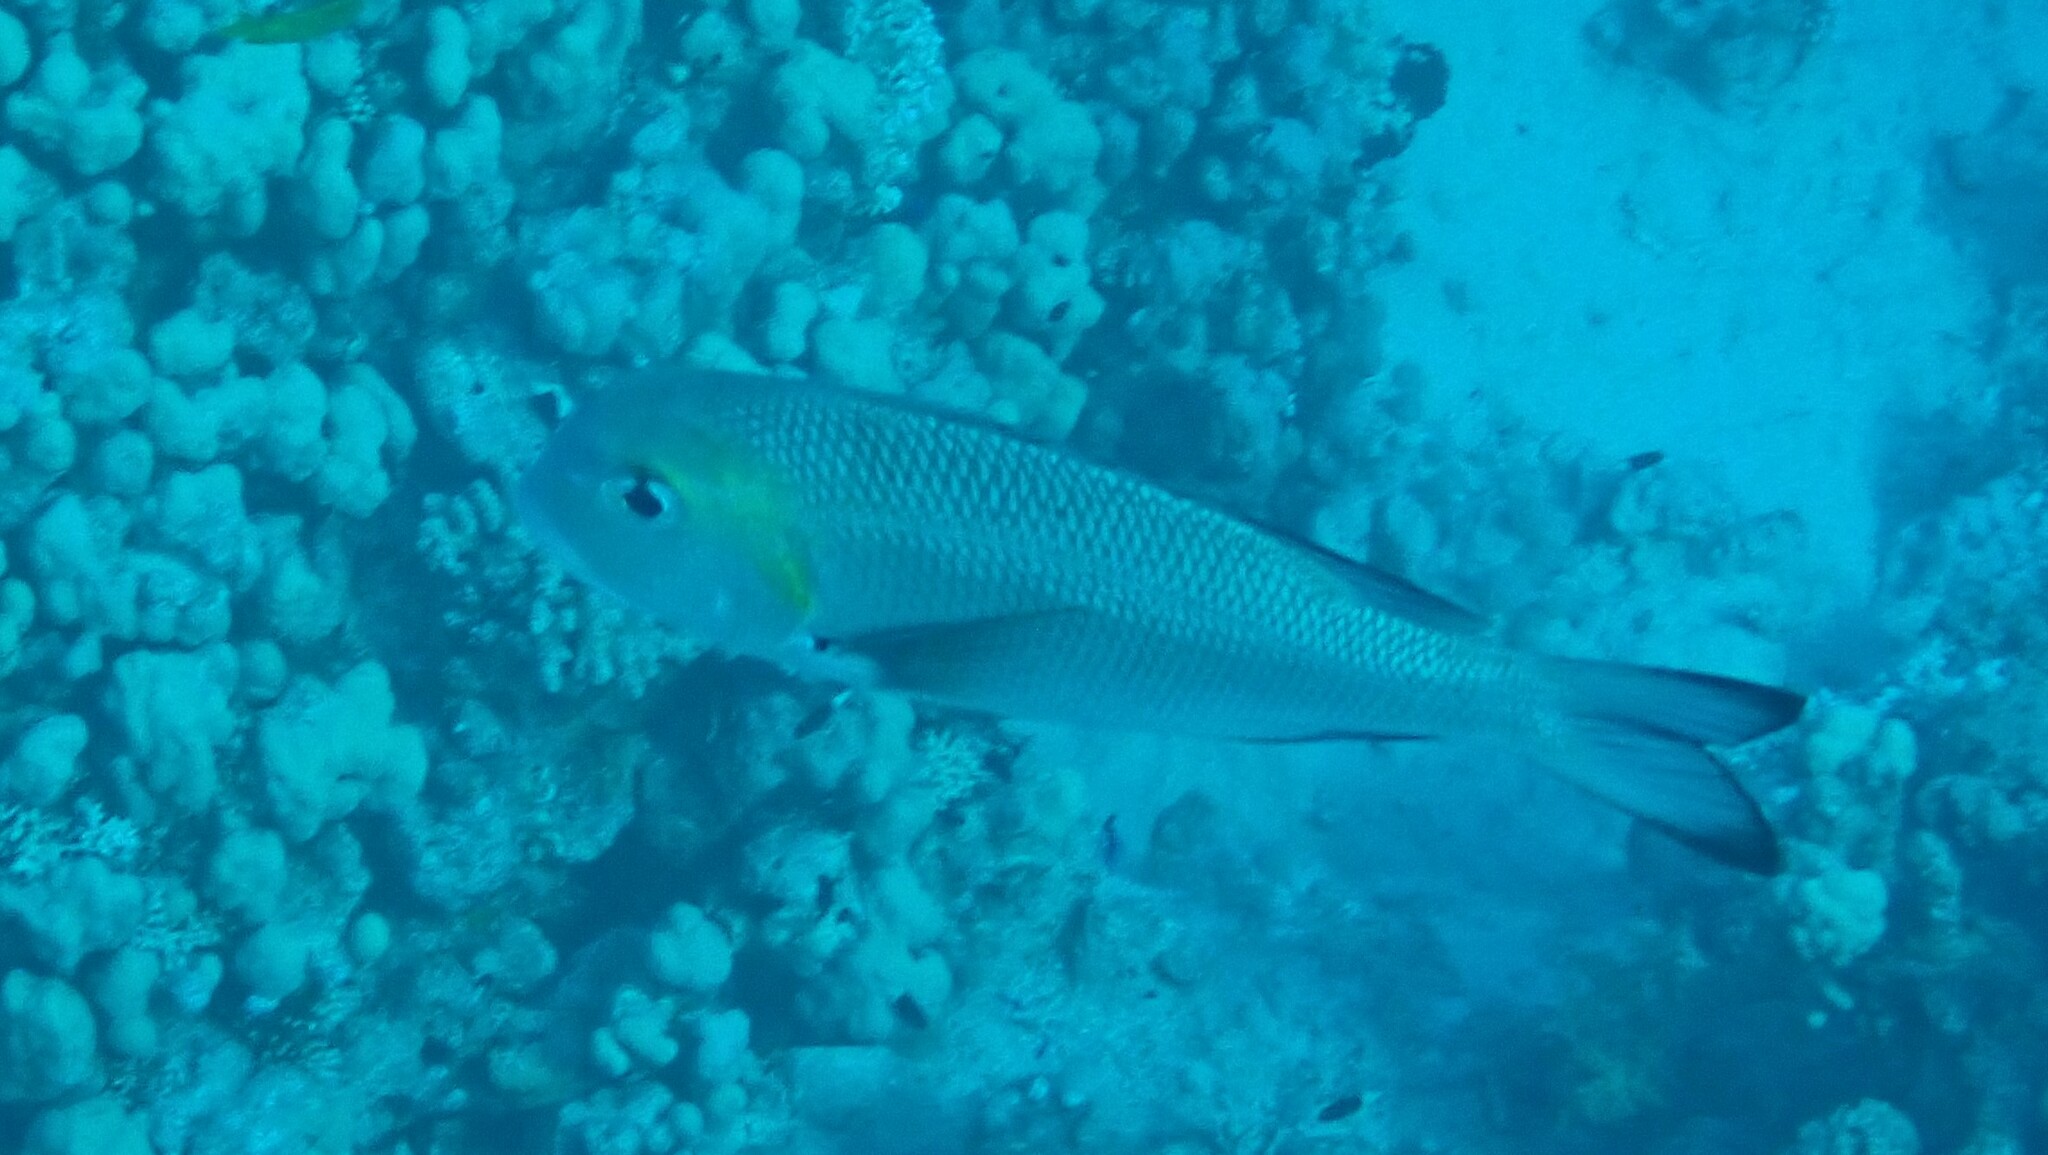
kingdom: Animalia
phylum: Chordata
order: Perciformes
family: Lethrinidae
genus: Monotaxis
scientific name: Monotaxis grandoculis
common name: Bigeye emperor
